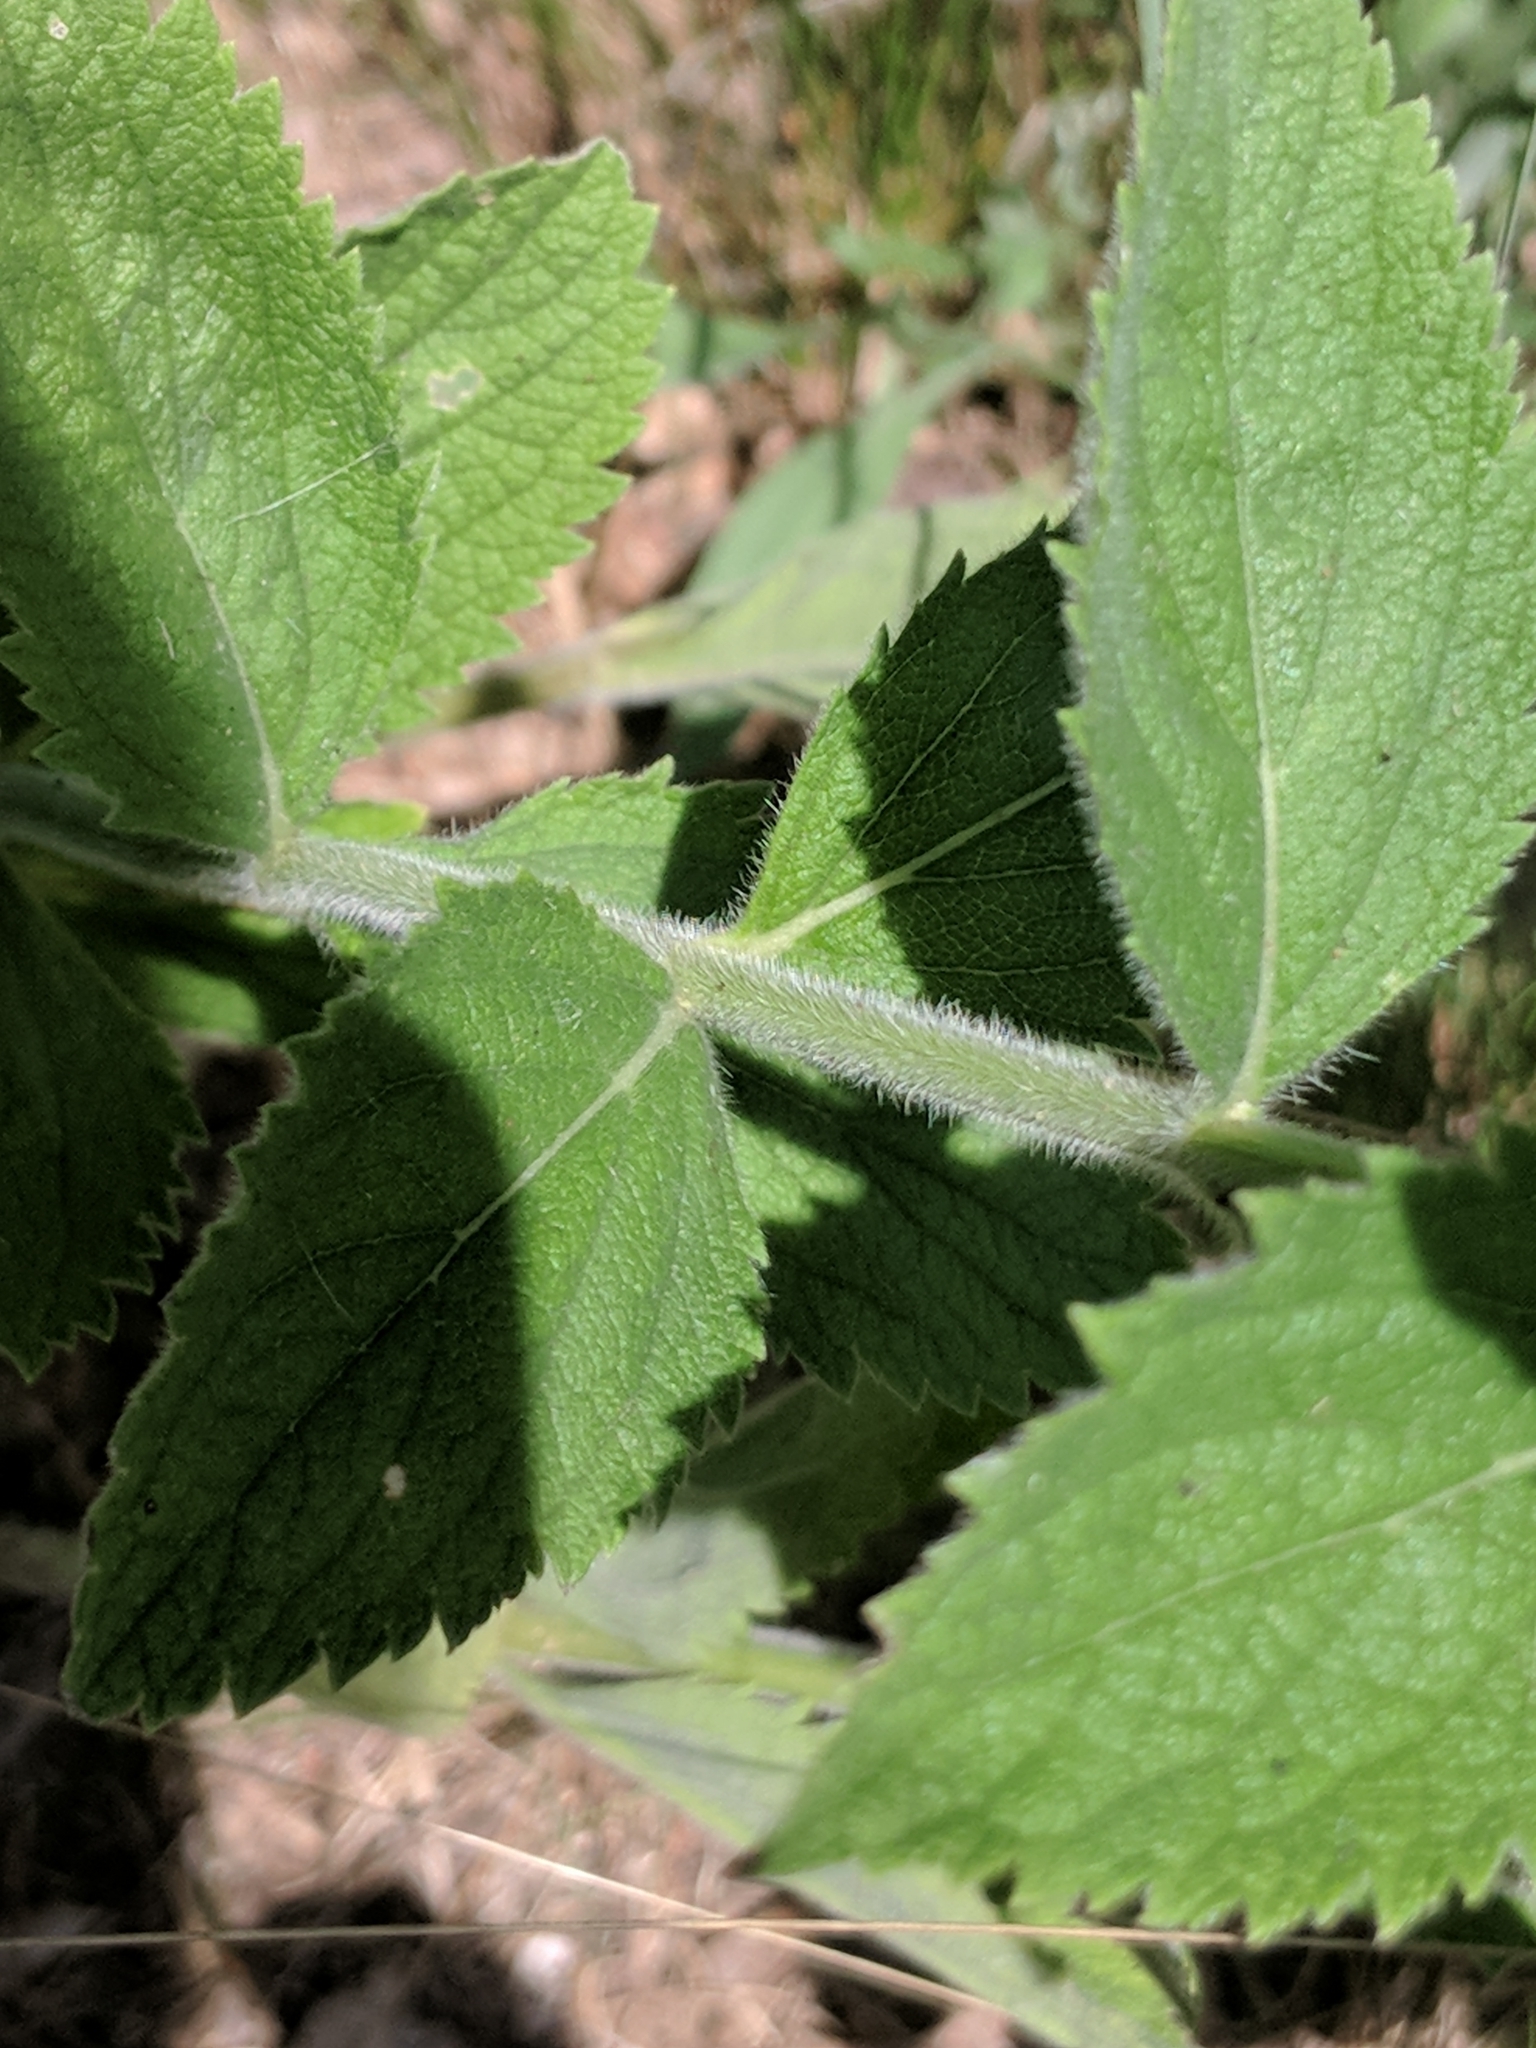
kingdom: Plantae
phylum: Tracheophyta
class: Magnoliopsida
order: Lamiales
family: Verbenaceae
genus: Verbena
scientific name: Verbena stricta
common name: Hoary vervain
